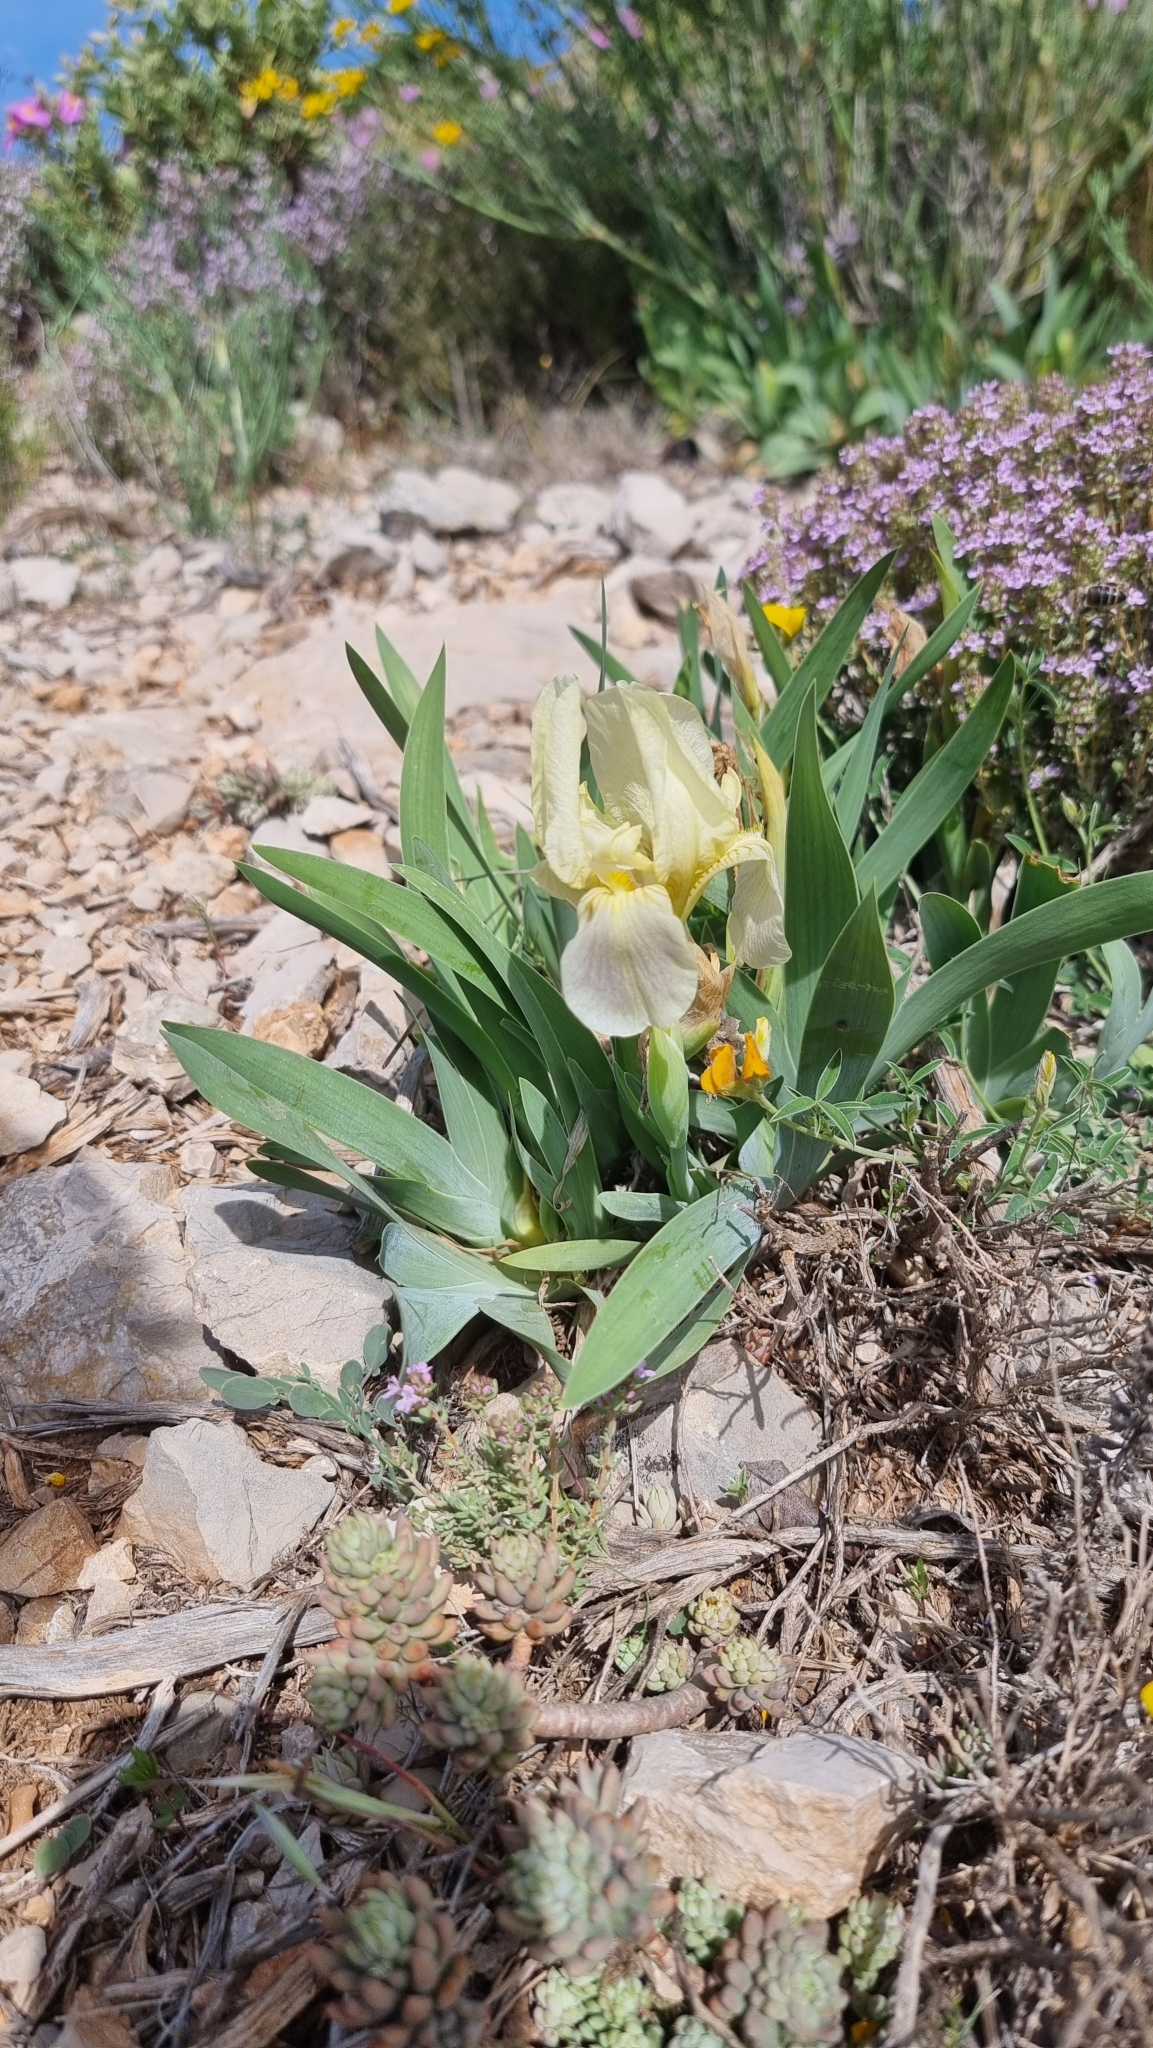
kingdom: Plantae
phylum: Tracheophyta
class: Liliopsida
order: Asparagales
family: Iridaceae
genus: Iris
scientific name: Iris lutescens
